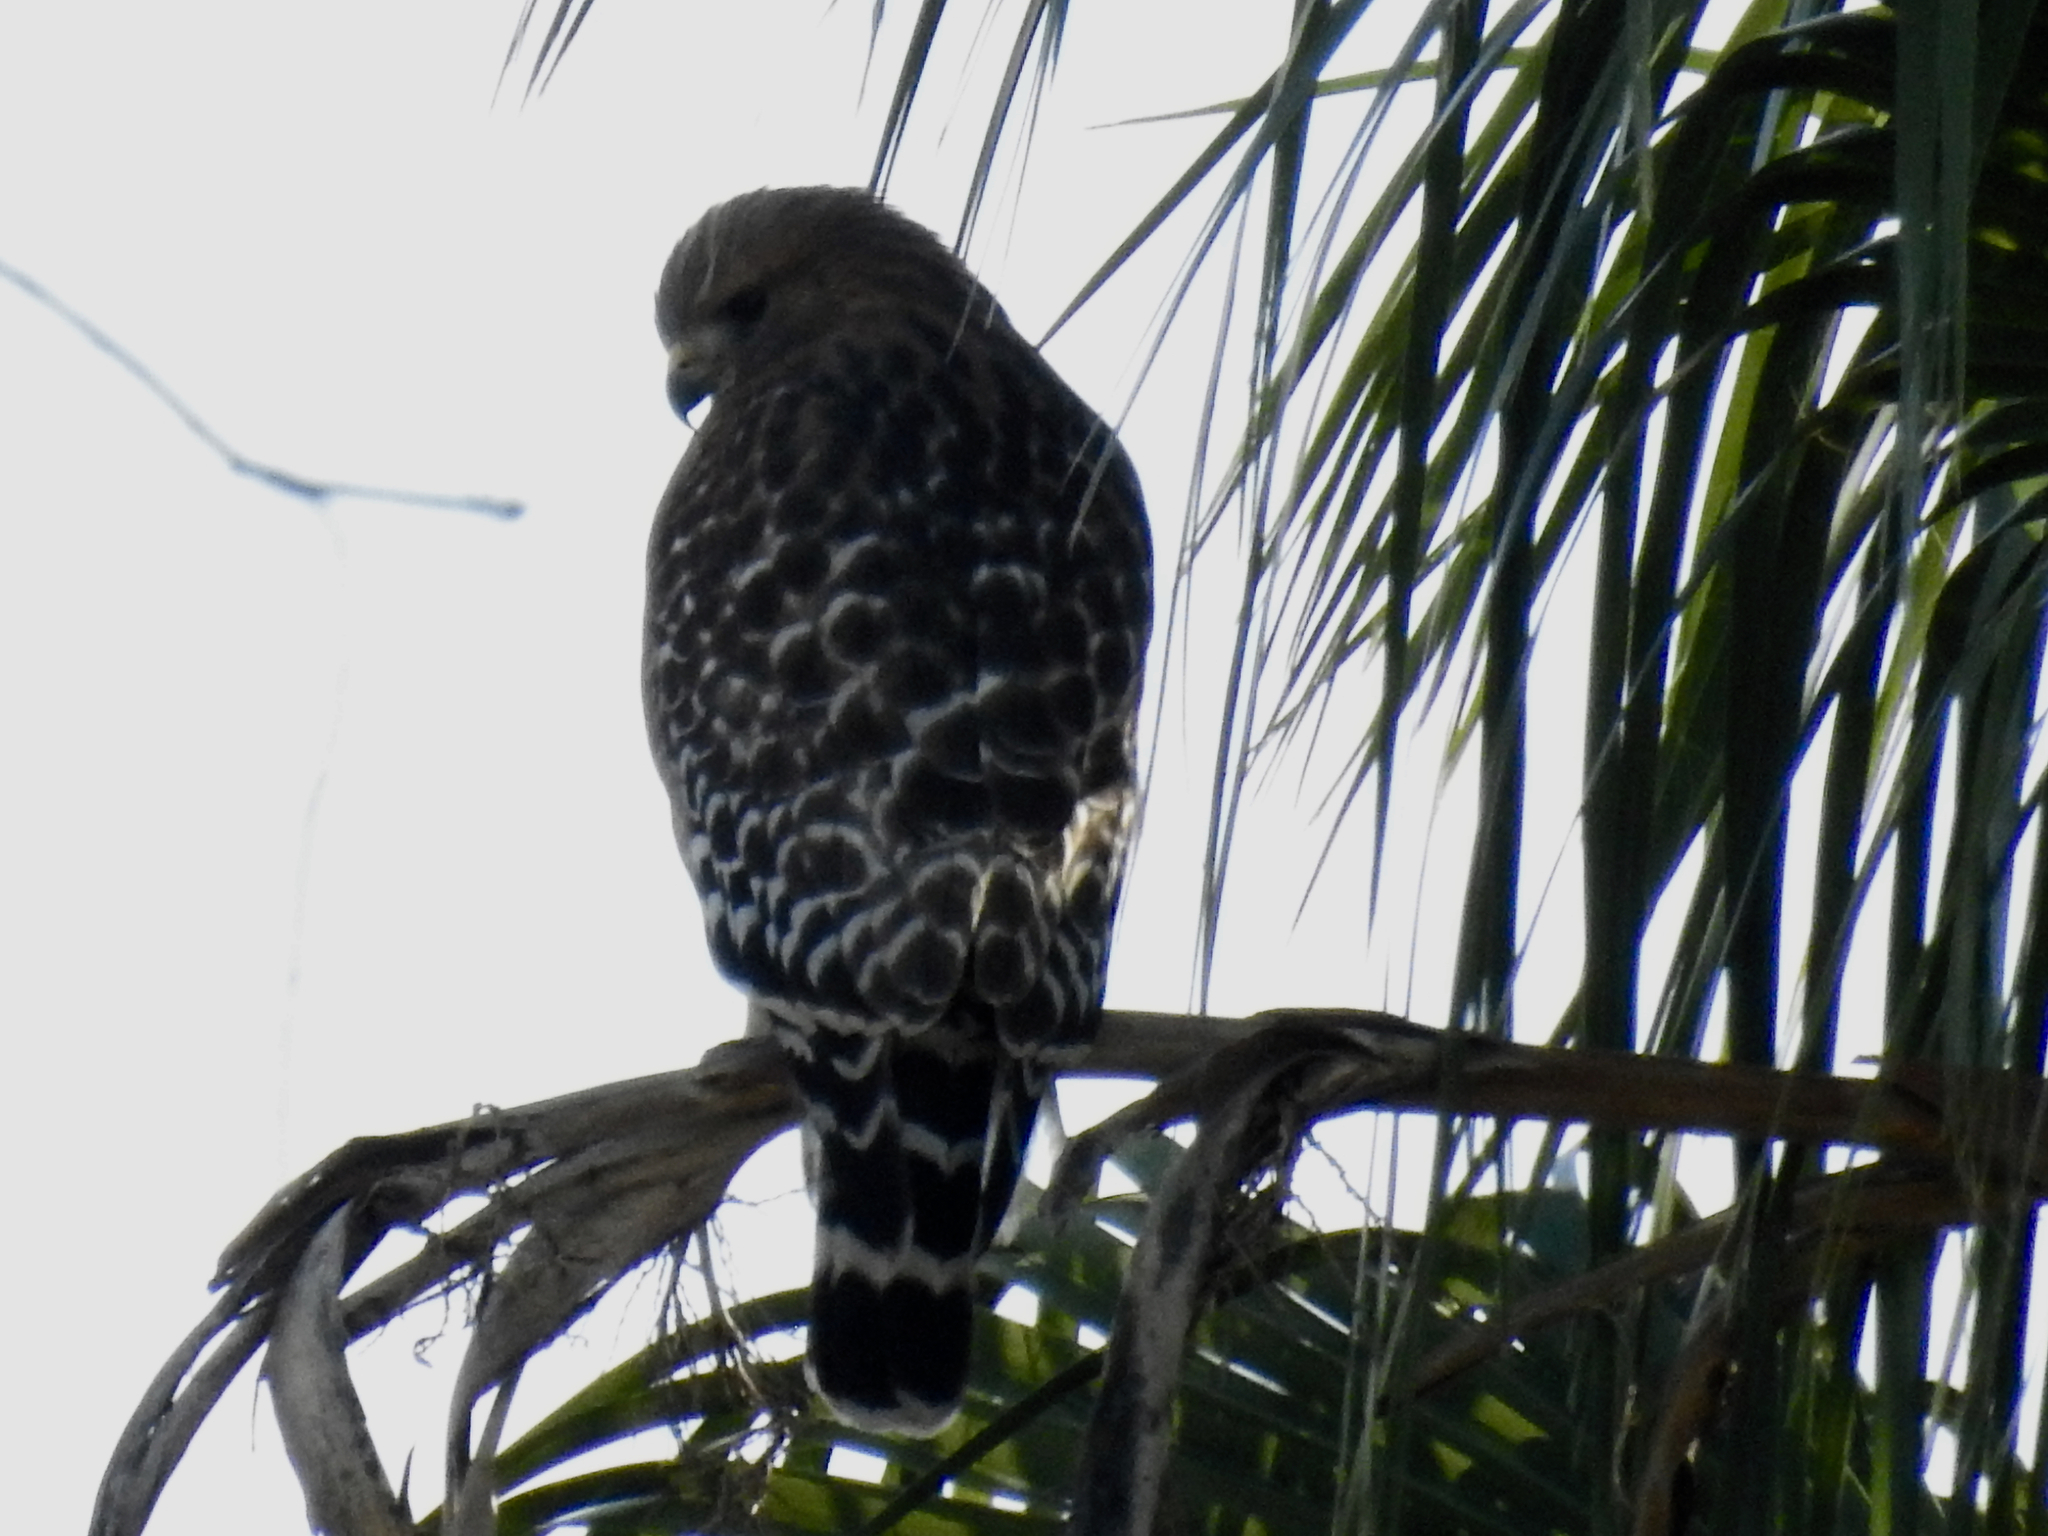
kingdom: Animalia
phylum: Chordata
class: Aves
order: Accipitriformes
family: Accipitridae
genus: Buteo
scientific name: Buteo lineatus
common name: Red-shouldered hawk
